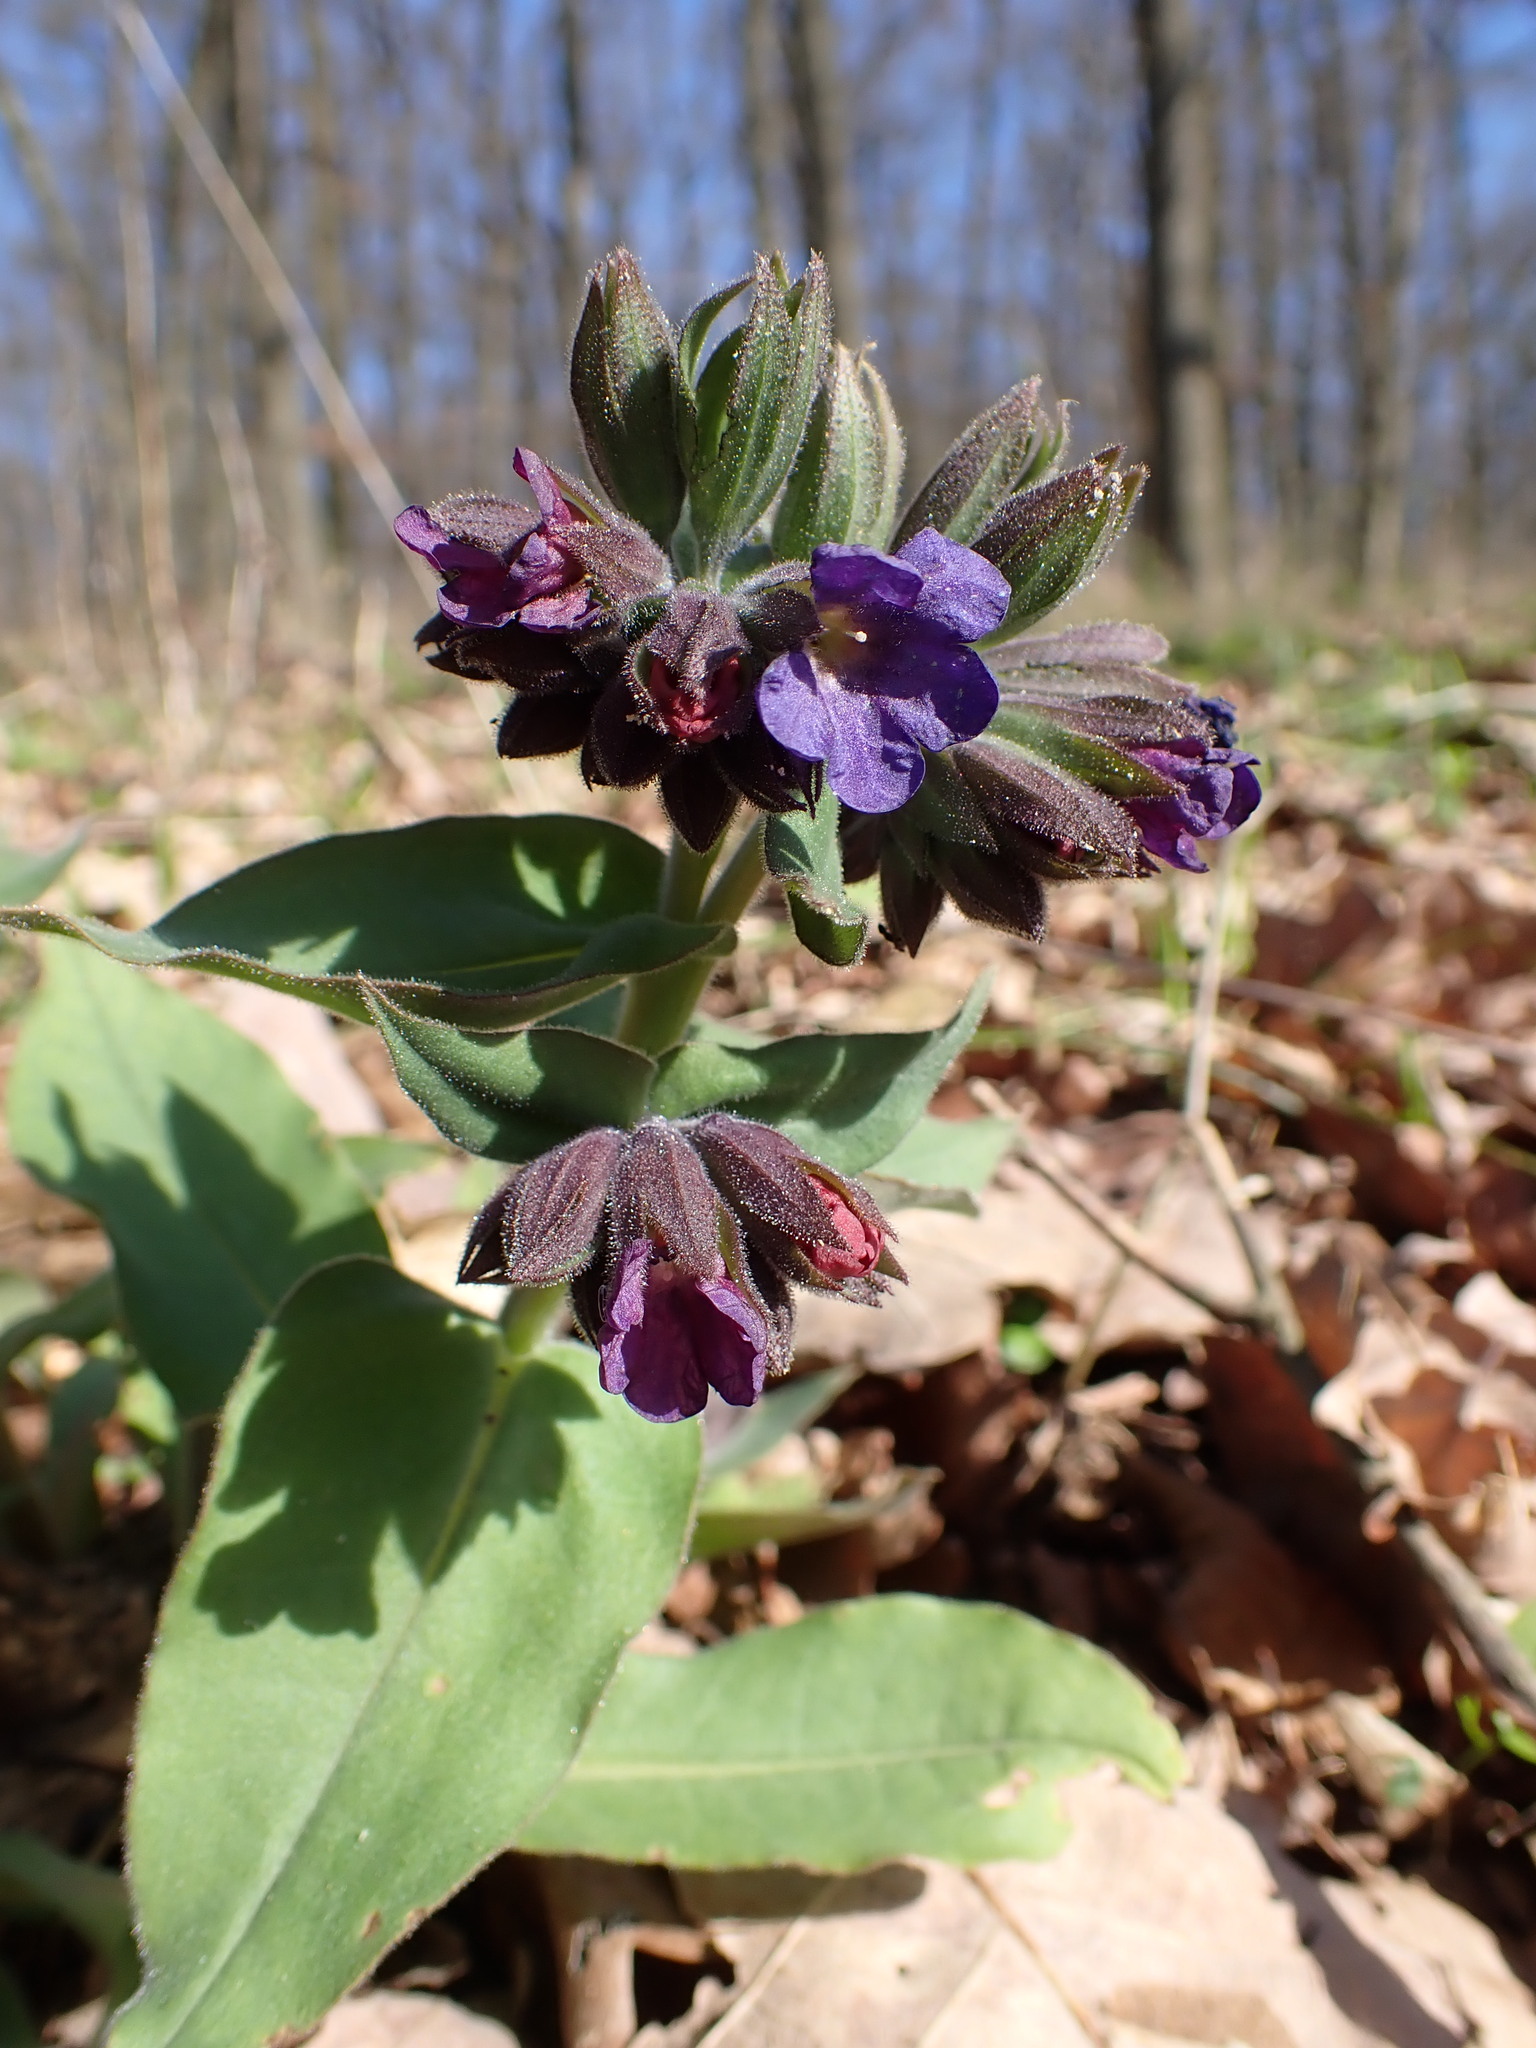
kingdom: Plantae
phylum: Tracheophyta
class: Magnoliopsida
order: Boraginales
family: Boraginaceae
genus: Pulmonaria
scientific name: Pulmonaria mollis
